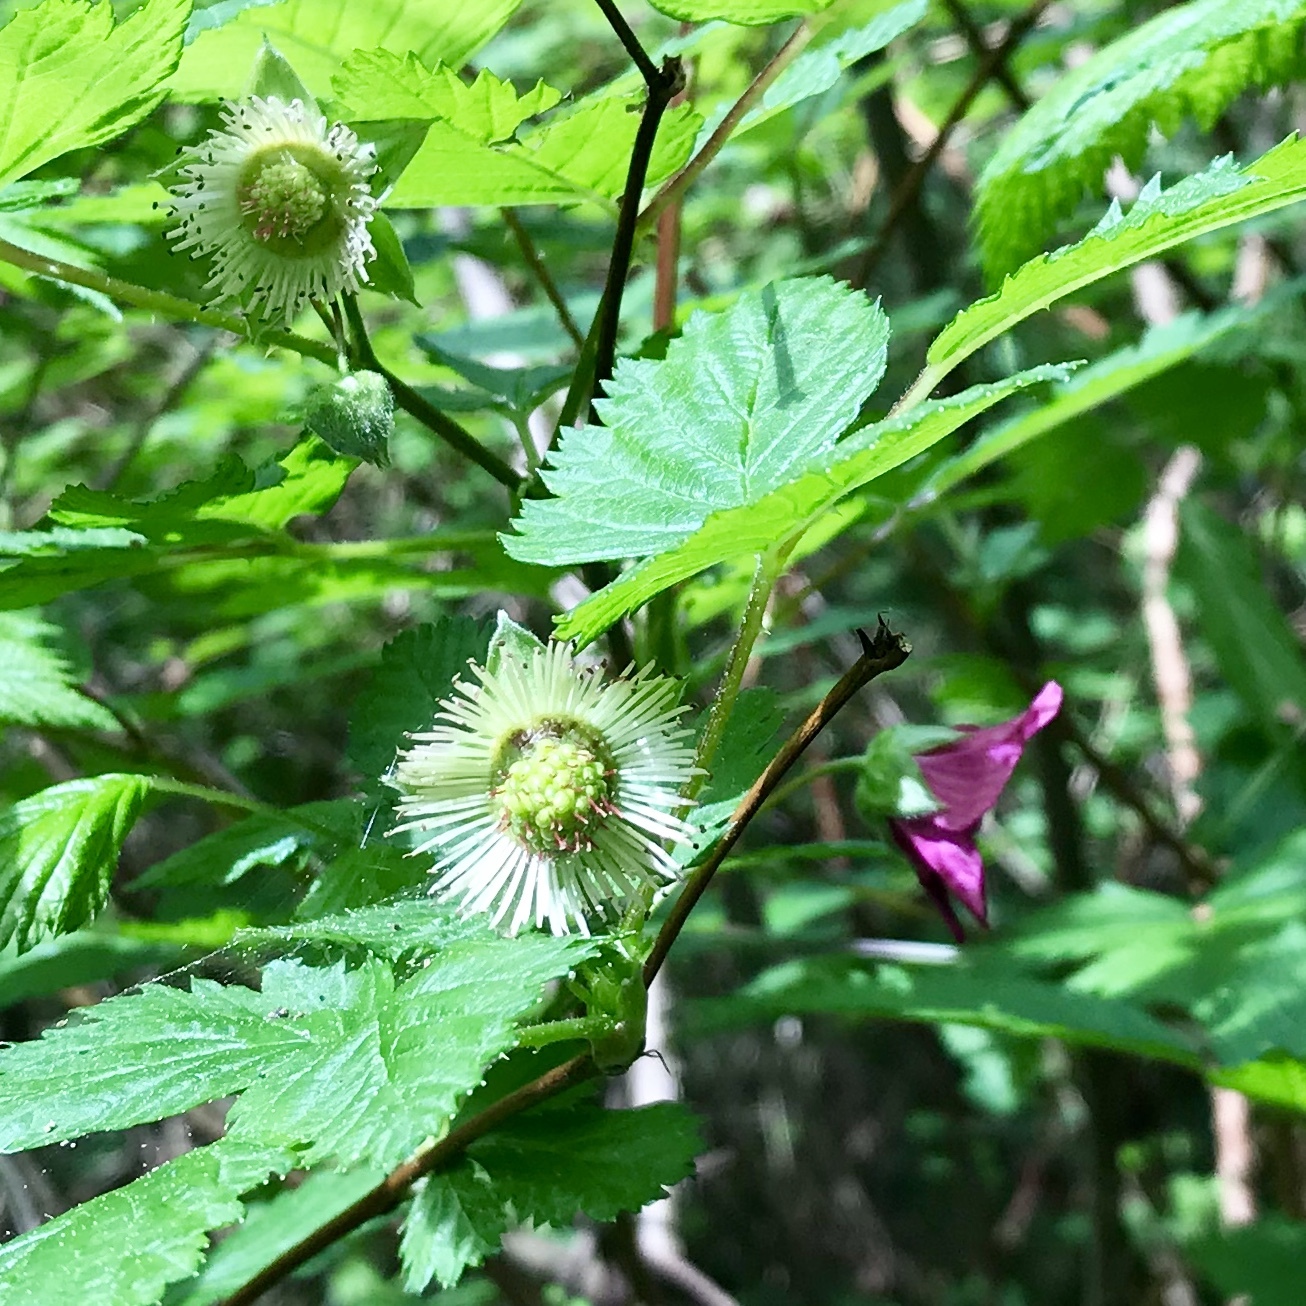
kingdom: Plantae
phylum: Tracheophyta
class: Magnoliopsida
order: Rosales
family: Rosaceae
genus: Rubus
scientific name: Rubus spectabilis
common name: Salmonberry
